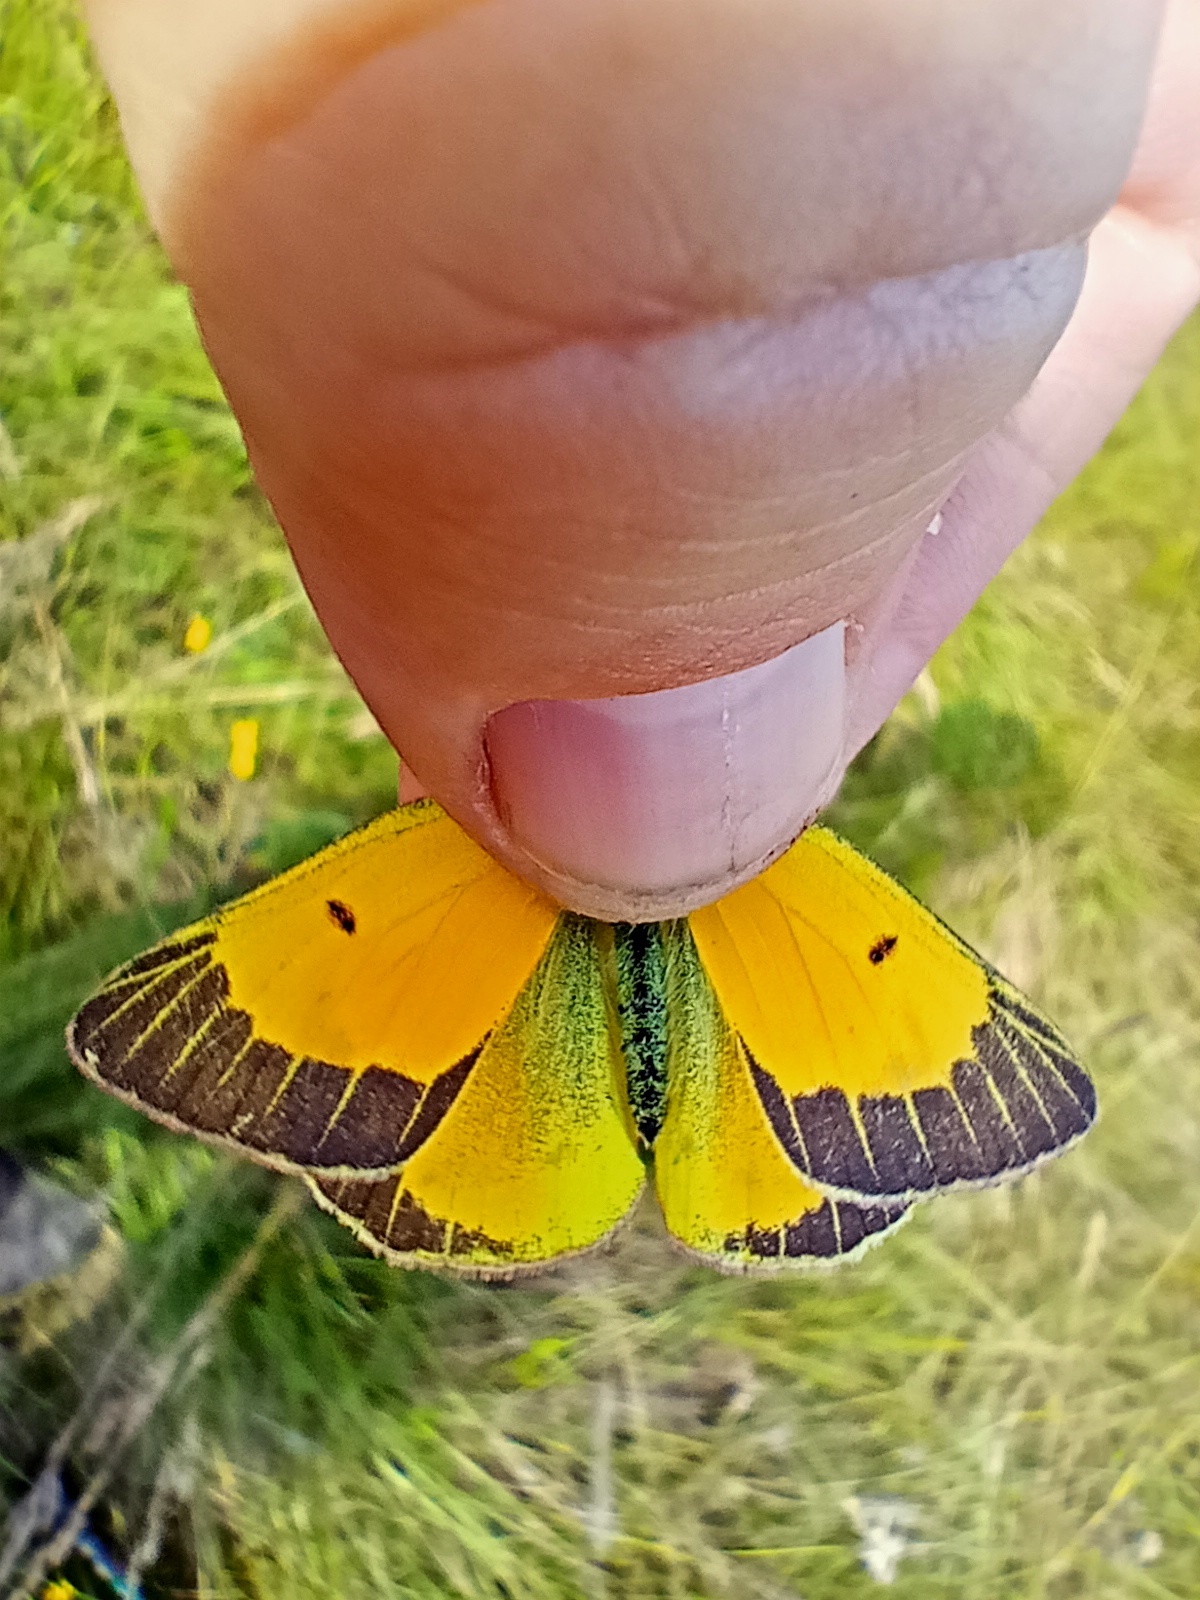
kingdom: Animalia
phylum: Arthropoda
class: Insecta
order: Lepidoptera
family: Pieridae
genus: Colias
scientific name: Colias chrysotheme
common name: Lesser clouded yellow
